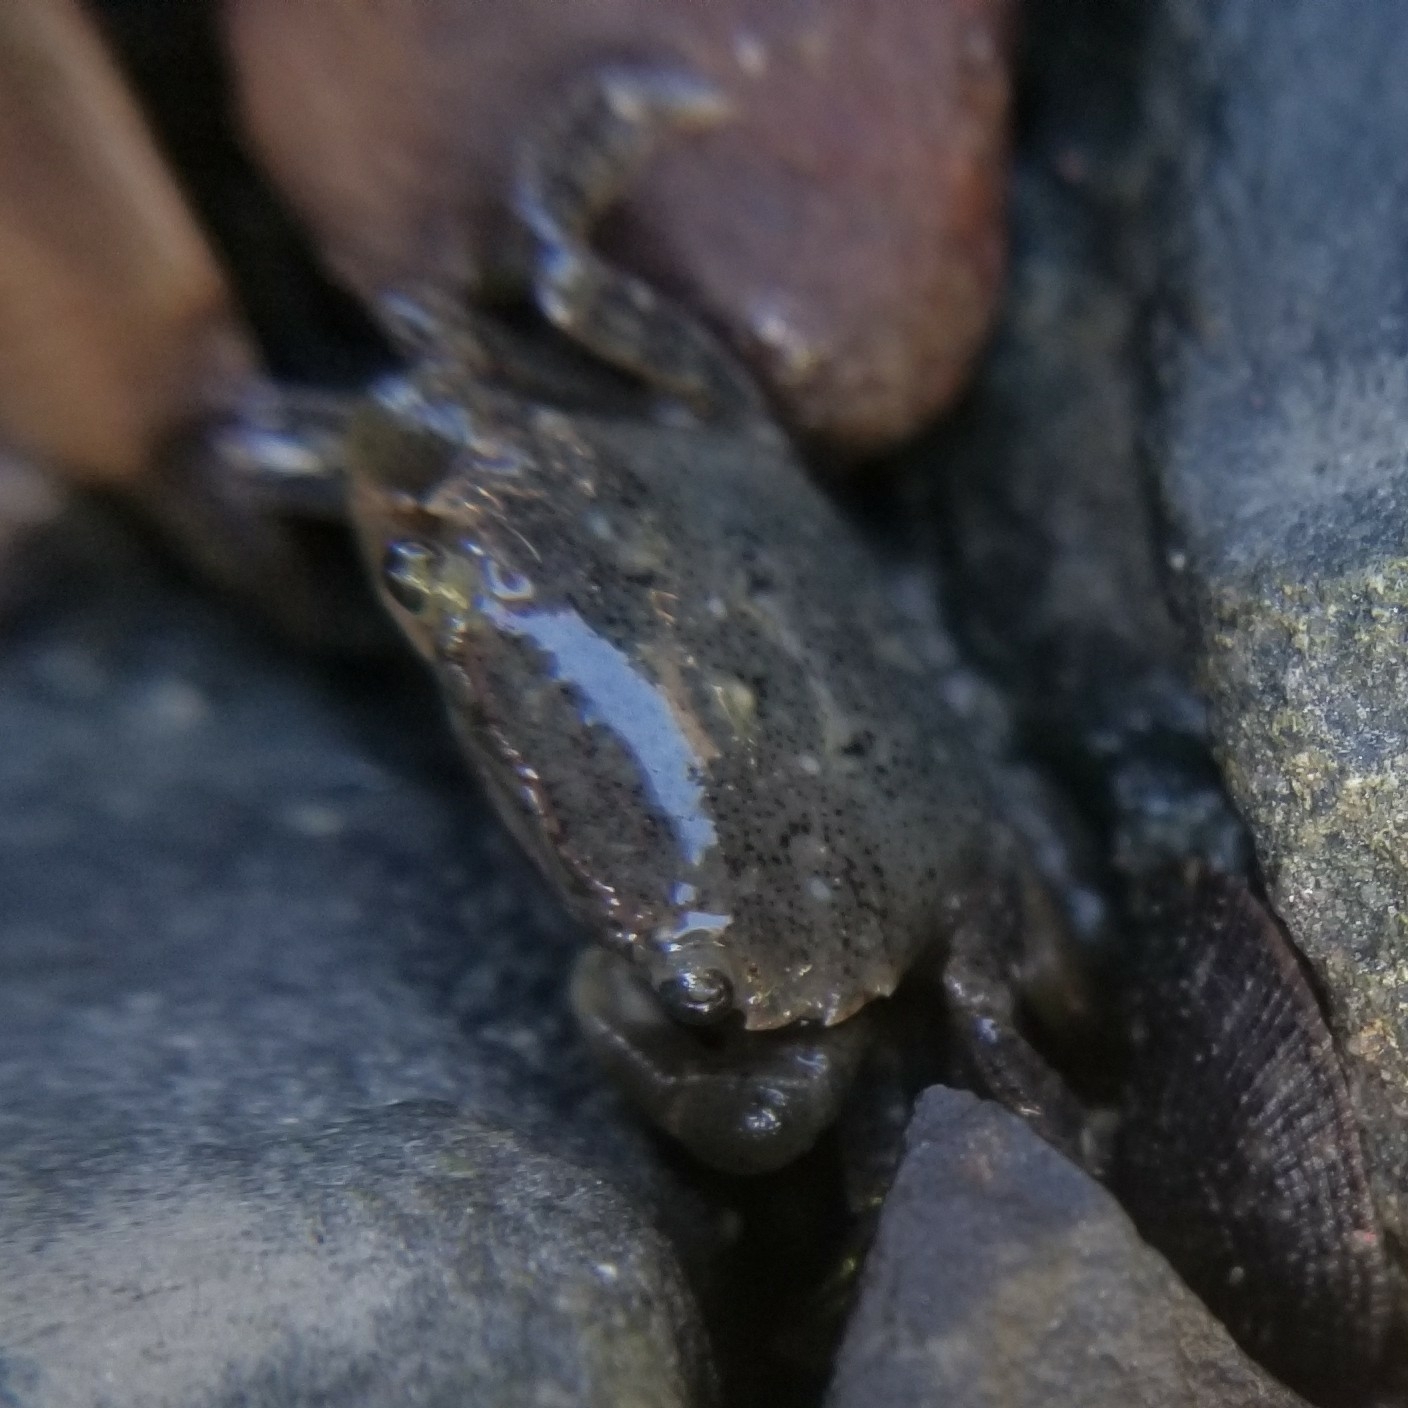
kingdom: Animalia
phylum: Arthropoda
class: Malacostraca
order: Decapoda
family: Varunidae
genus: Hemigrapsus
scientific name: Hemigrapsus oregonensis
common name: Yellow shore crab
